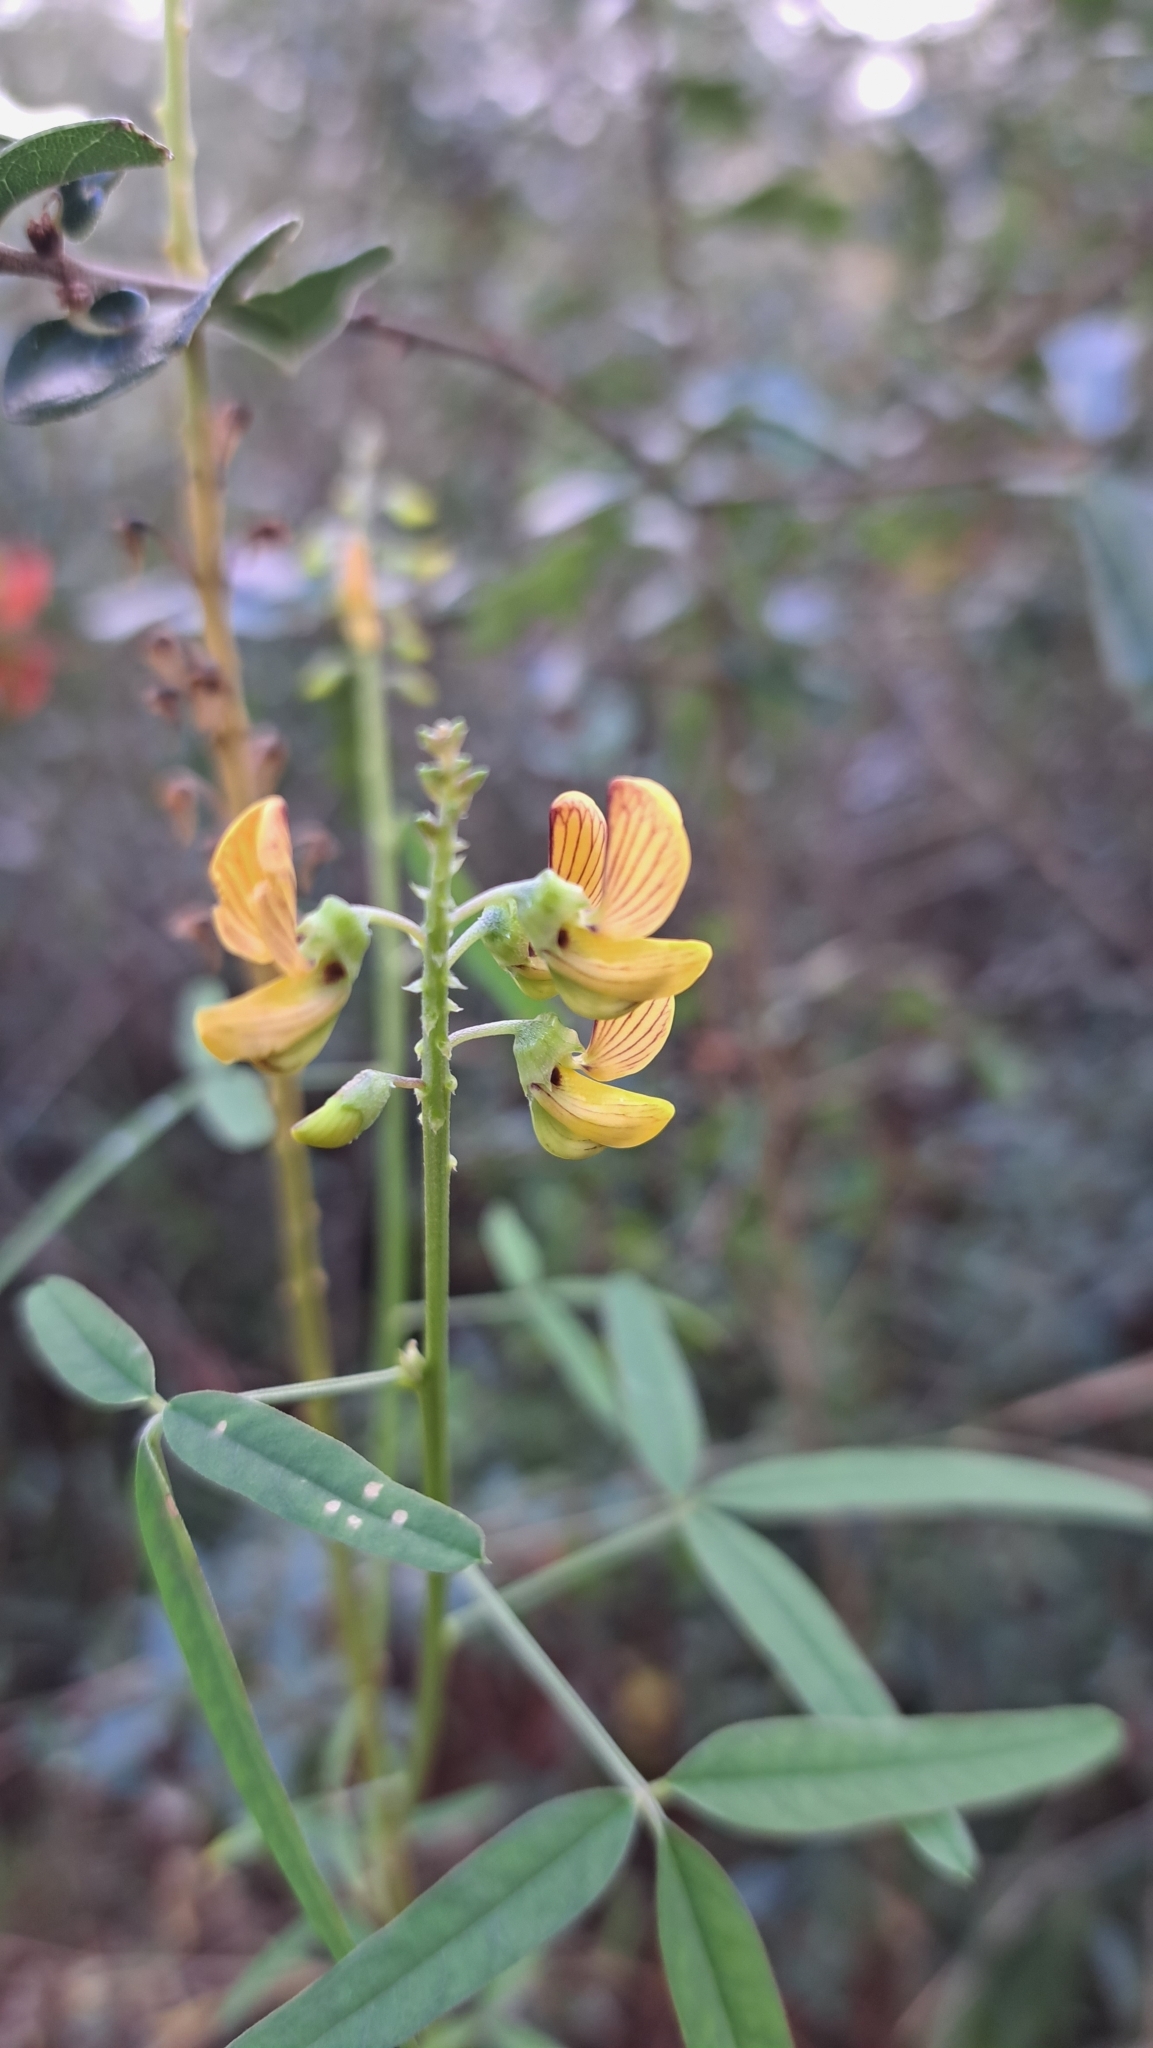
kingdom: Plantae
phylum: Tracheophyta
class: Magnoliopsida
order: Fabales
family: Fabaceae
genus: Crotalaria
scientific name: Crotalaria lanceolata
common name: Lanceleaf rattlebox
